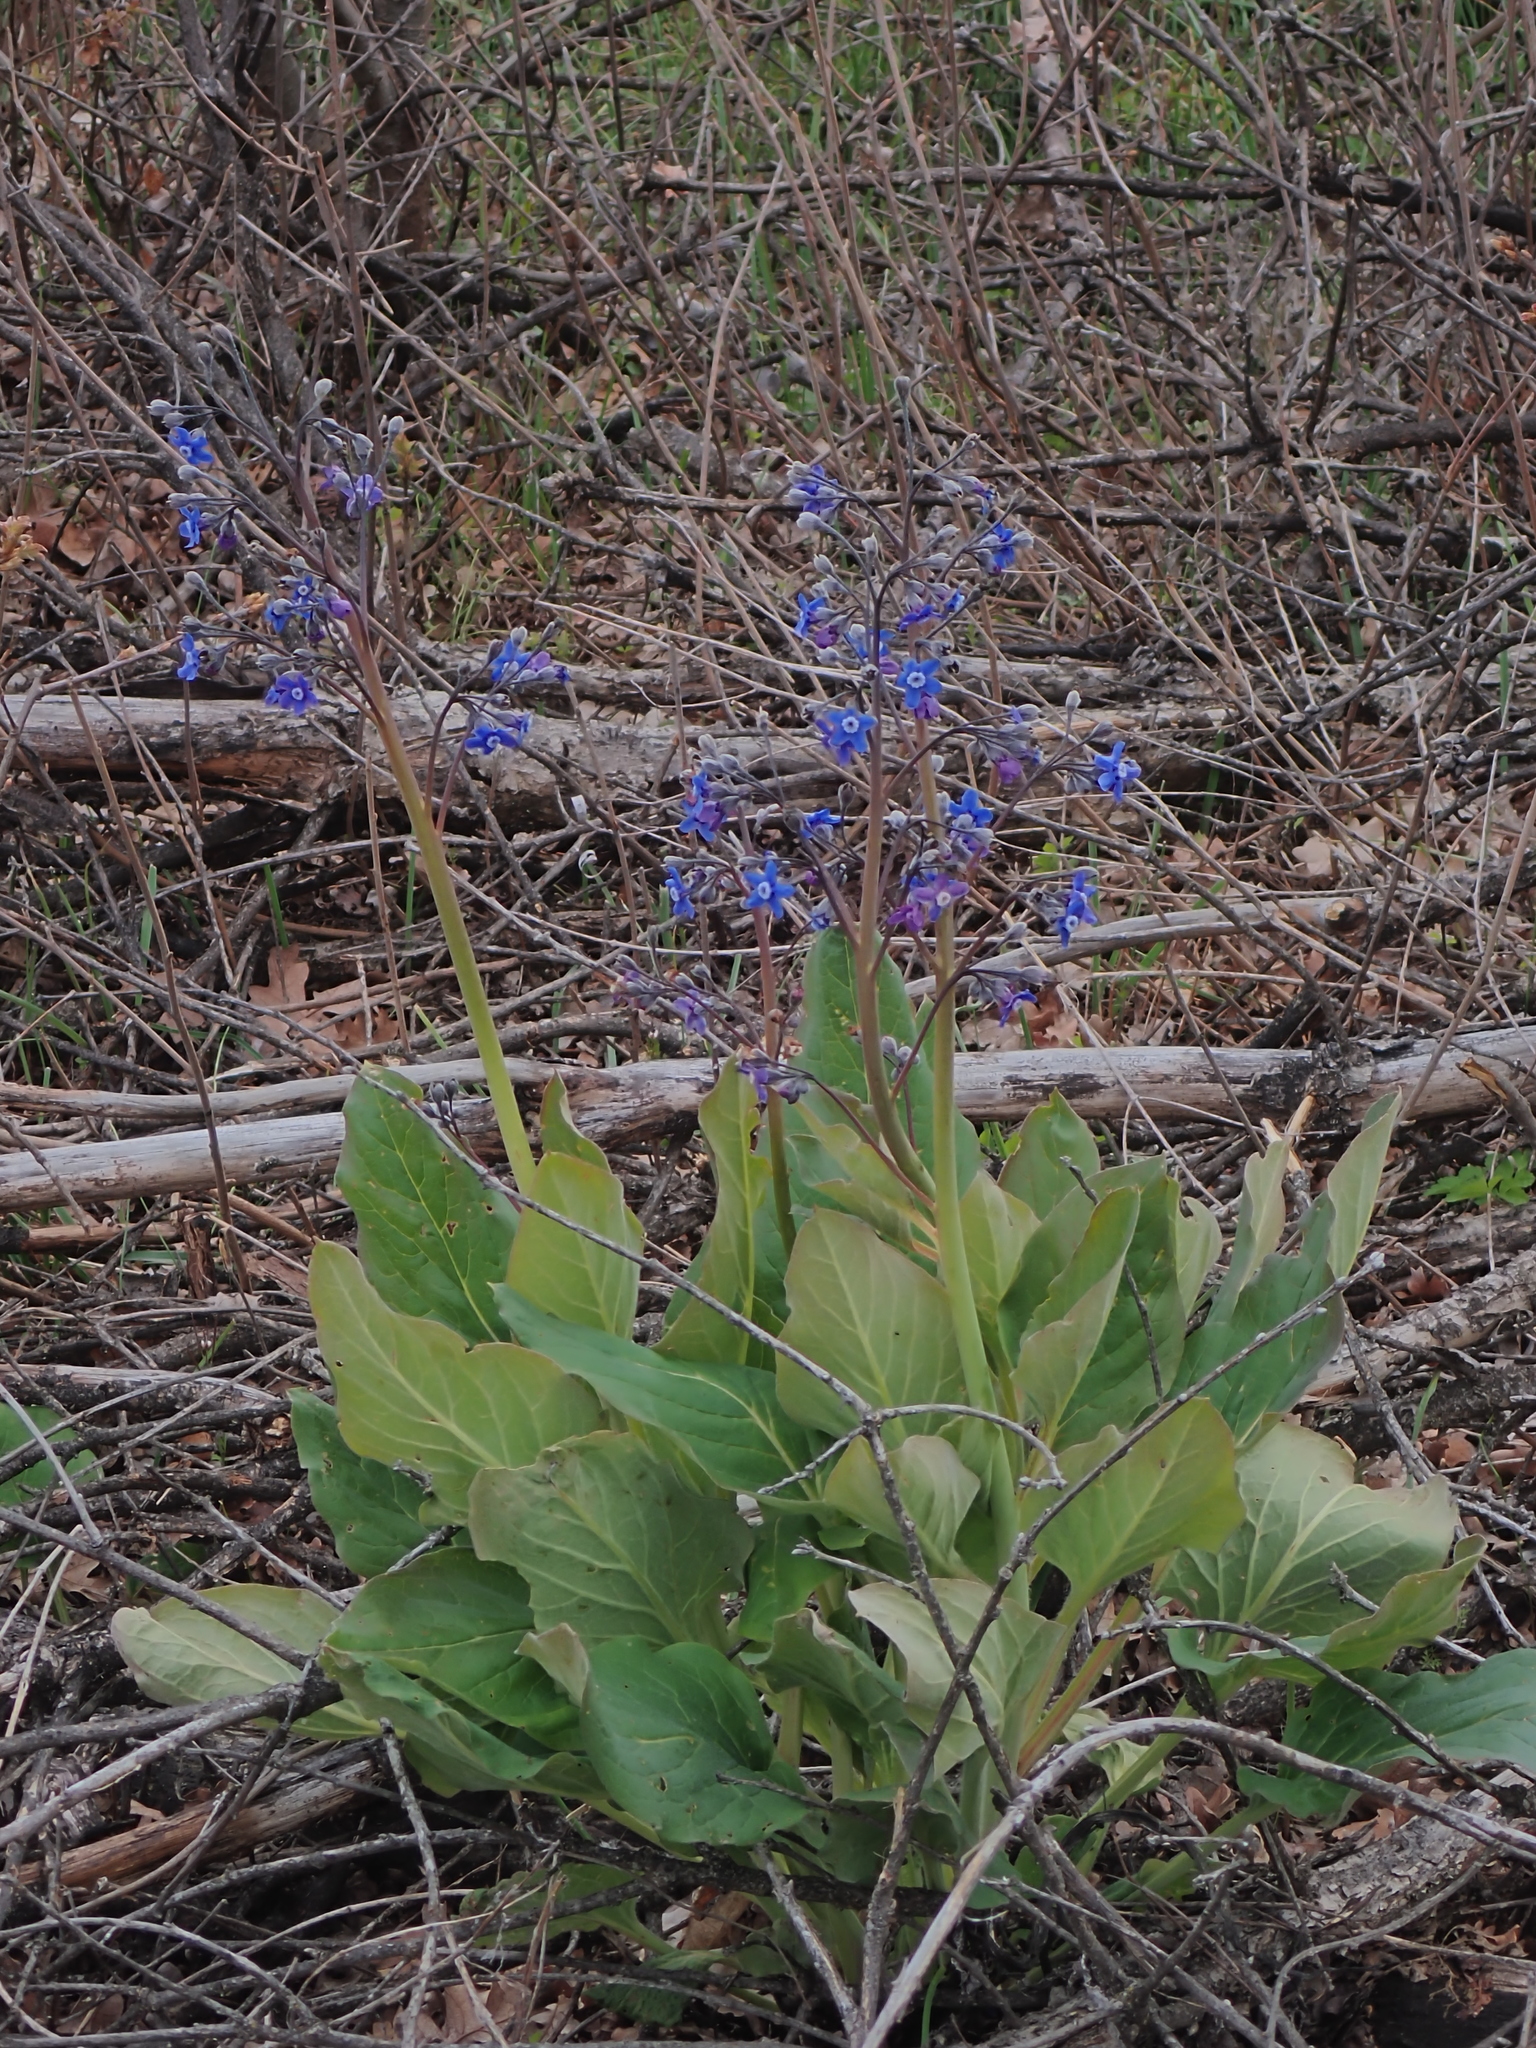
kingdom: Plantae
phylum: Tracheophyta
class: Magnoliopsida
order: Boraginales
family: Boraginaceae
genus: Adelinia
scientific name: Adelinia grande
